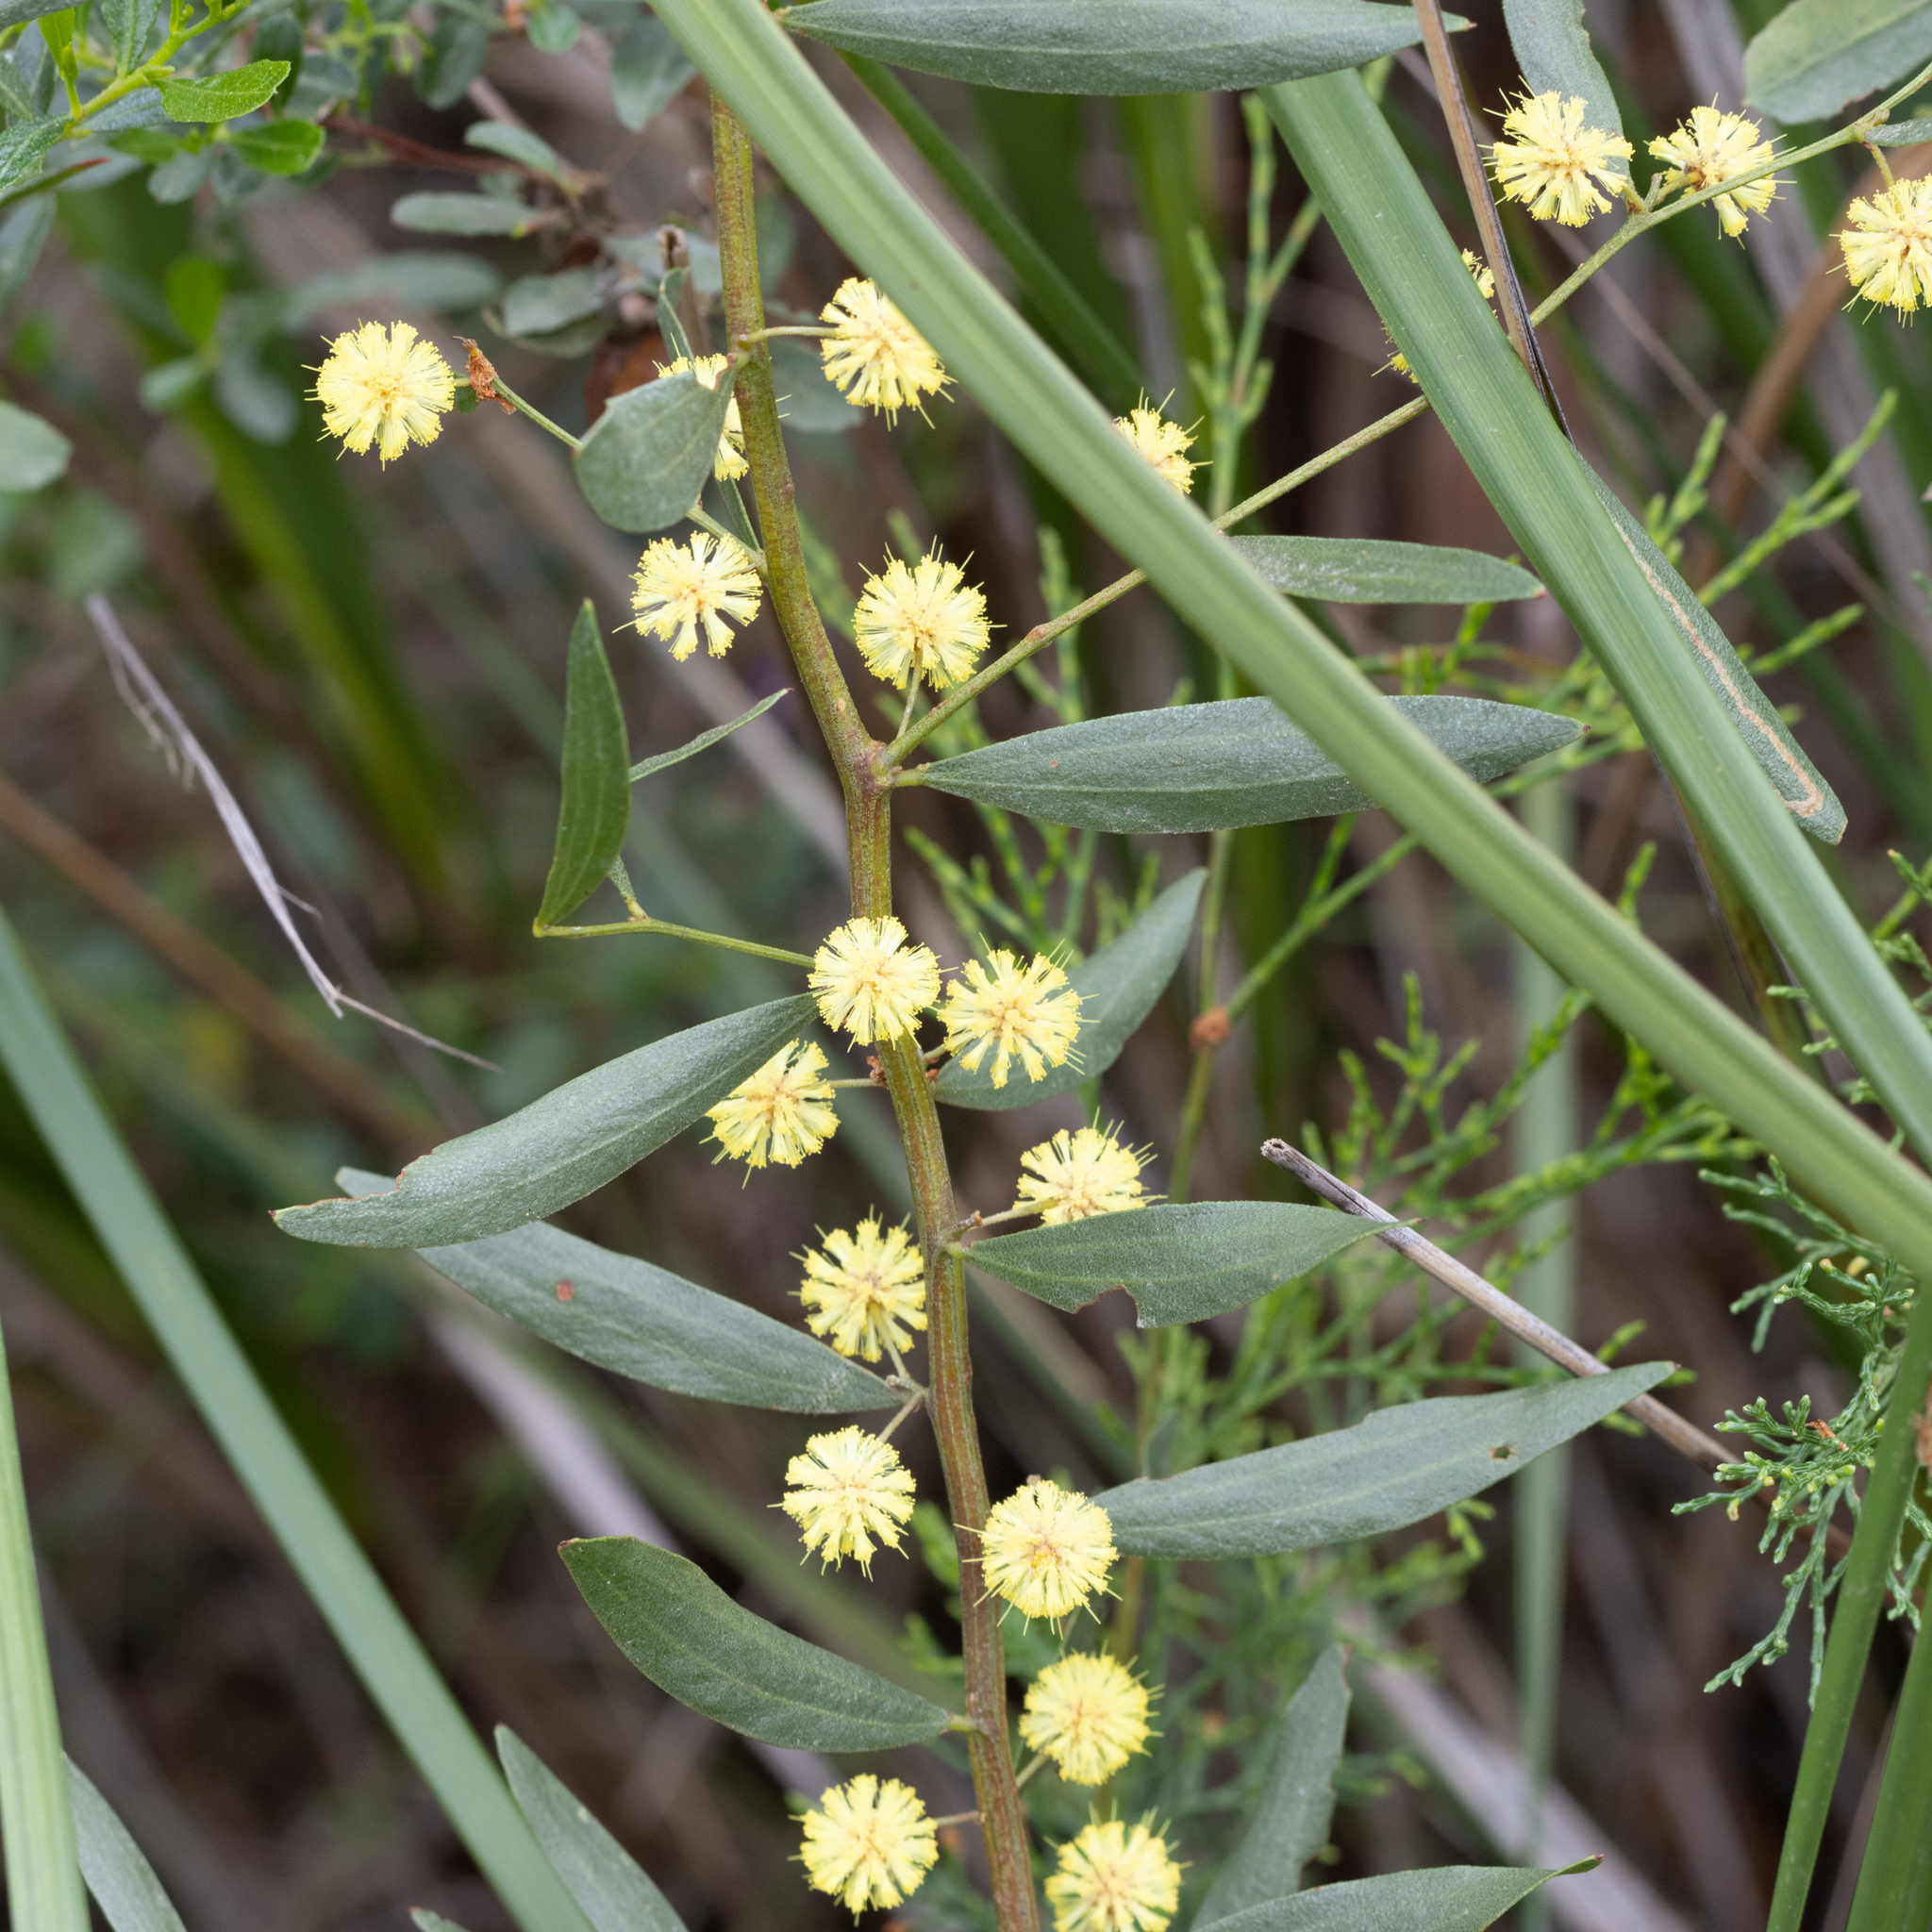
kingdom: Plantae
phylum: Tracheophyta
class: Magnoliopsida
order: Fabales
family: Fabaceae
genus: Acacia
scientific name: Acacia verniciflua
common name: Varnish wattle
